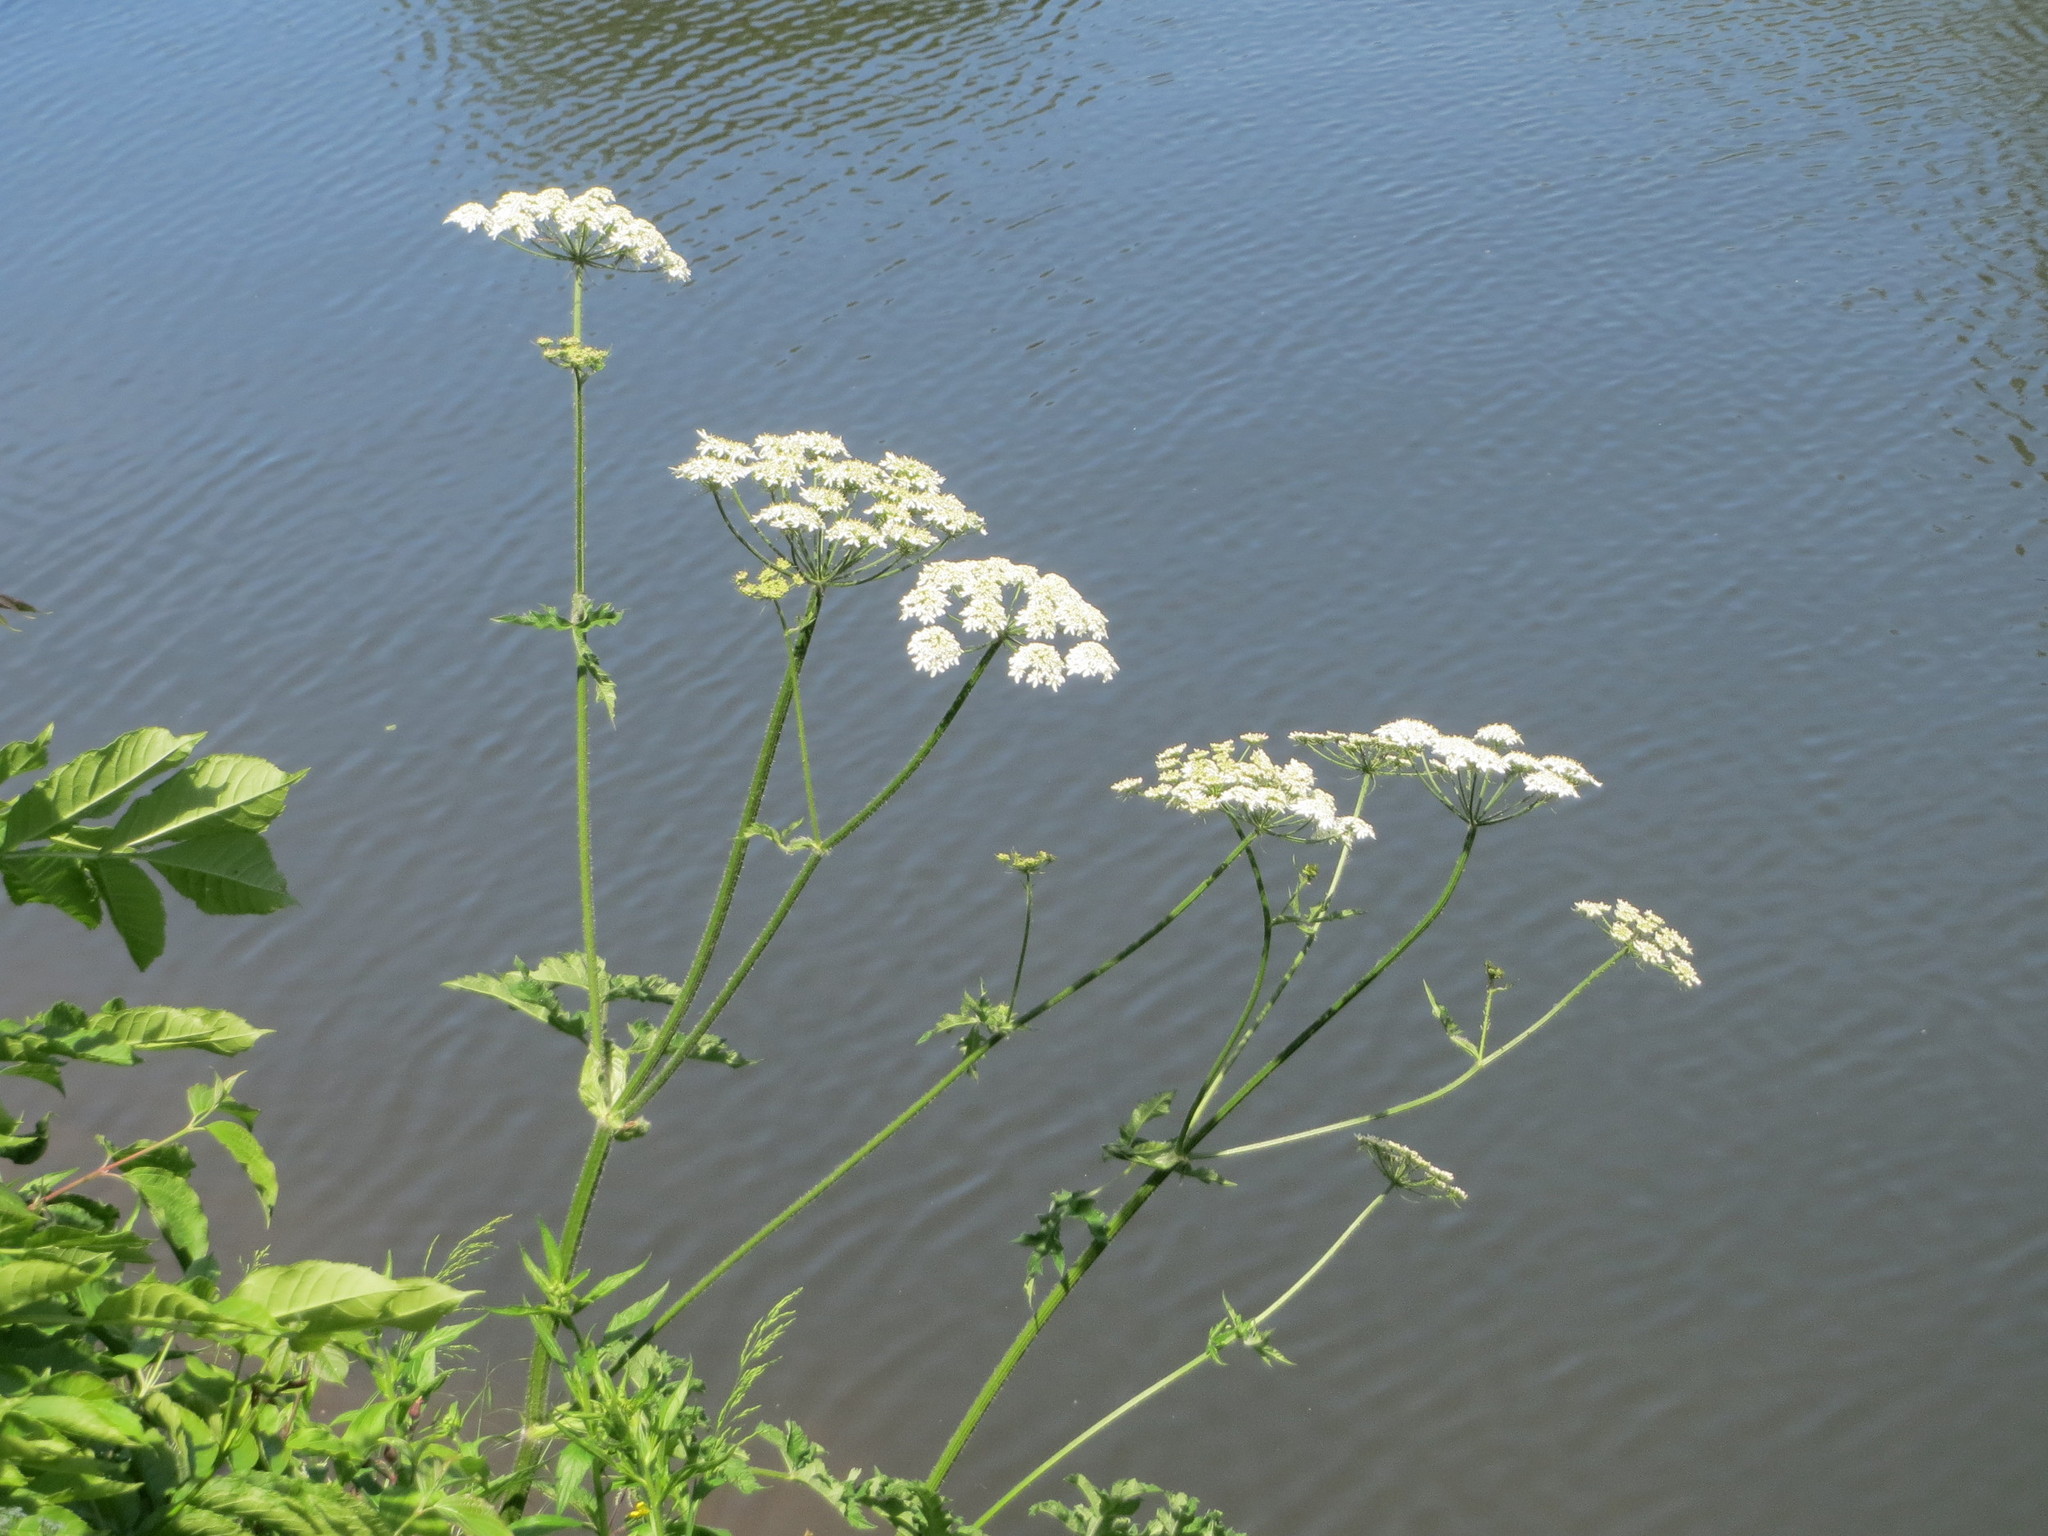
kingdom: Plantae
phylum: Tracheophyta
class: Magnoliopsida
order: Apiales
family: Apiaceae
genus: Aegopodium
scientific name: Aegopodium podagraria
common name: Ground-elder
